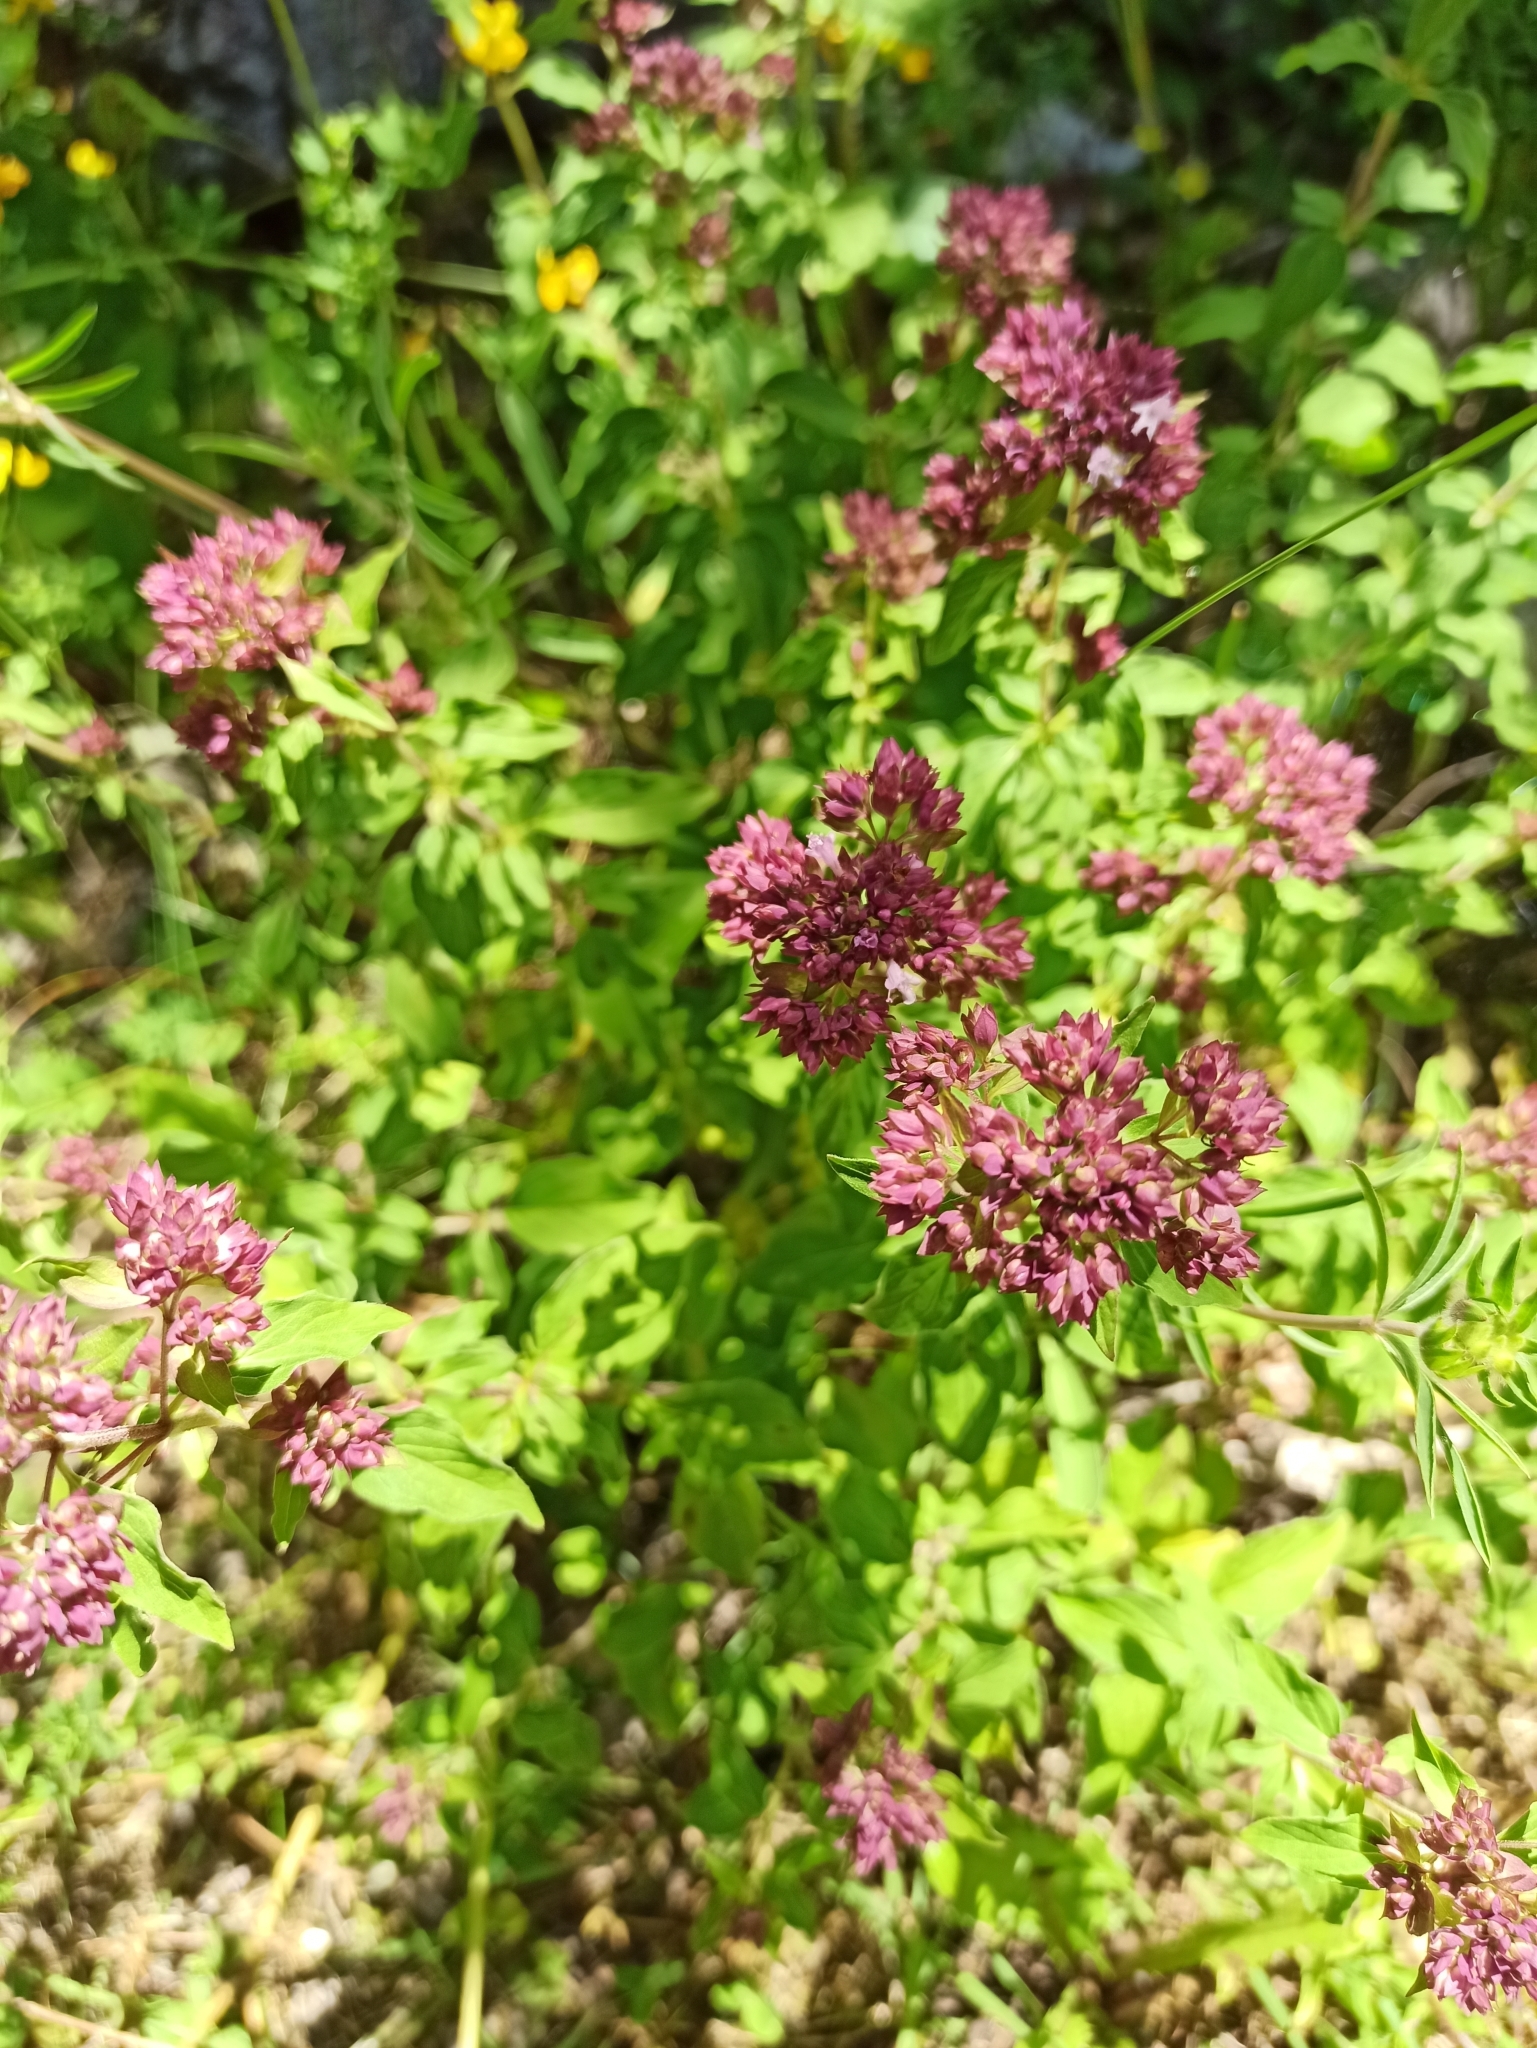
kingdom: Plantae
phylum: Tracheophyta
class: Magnoliopsida
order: Lamiales
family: Lamiaceae
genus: Origanum
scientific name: Origanum vulgare
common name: Wild marjoram
